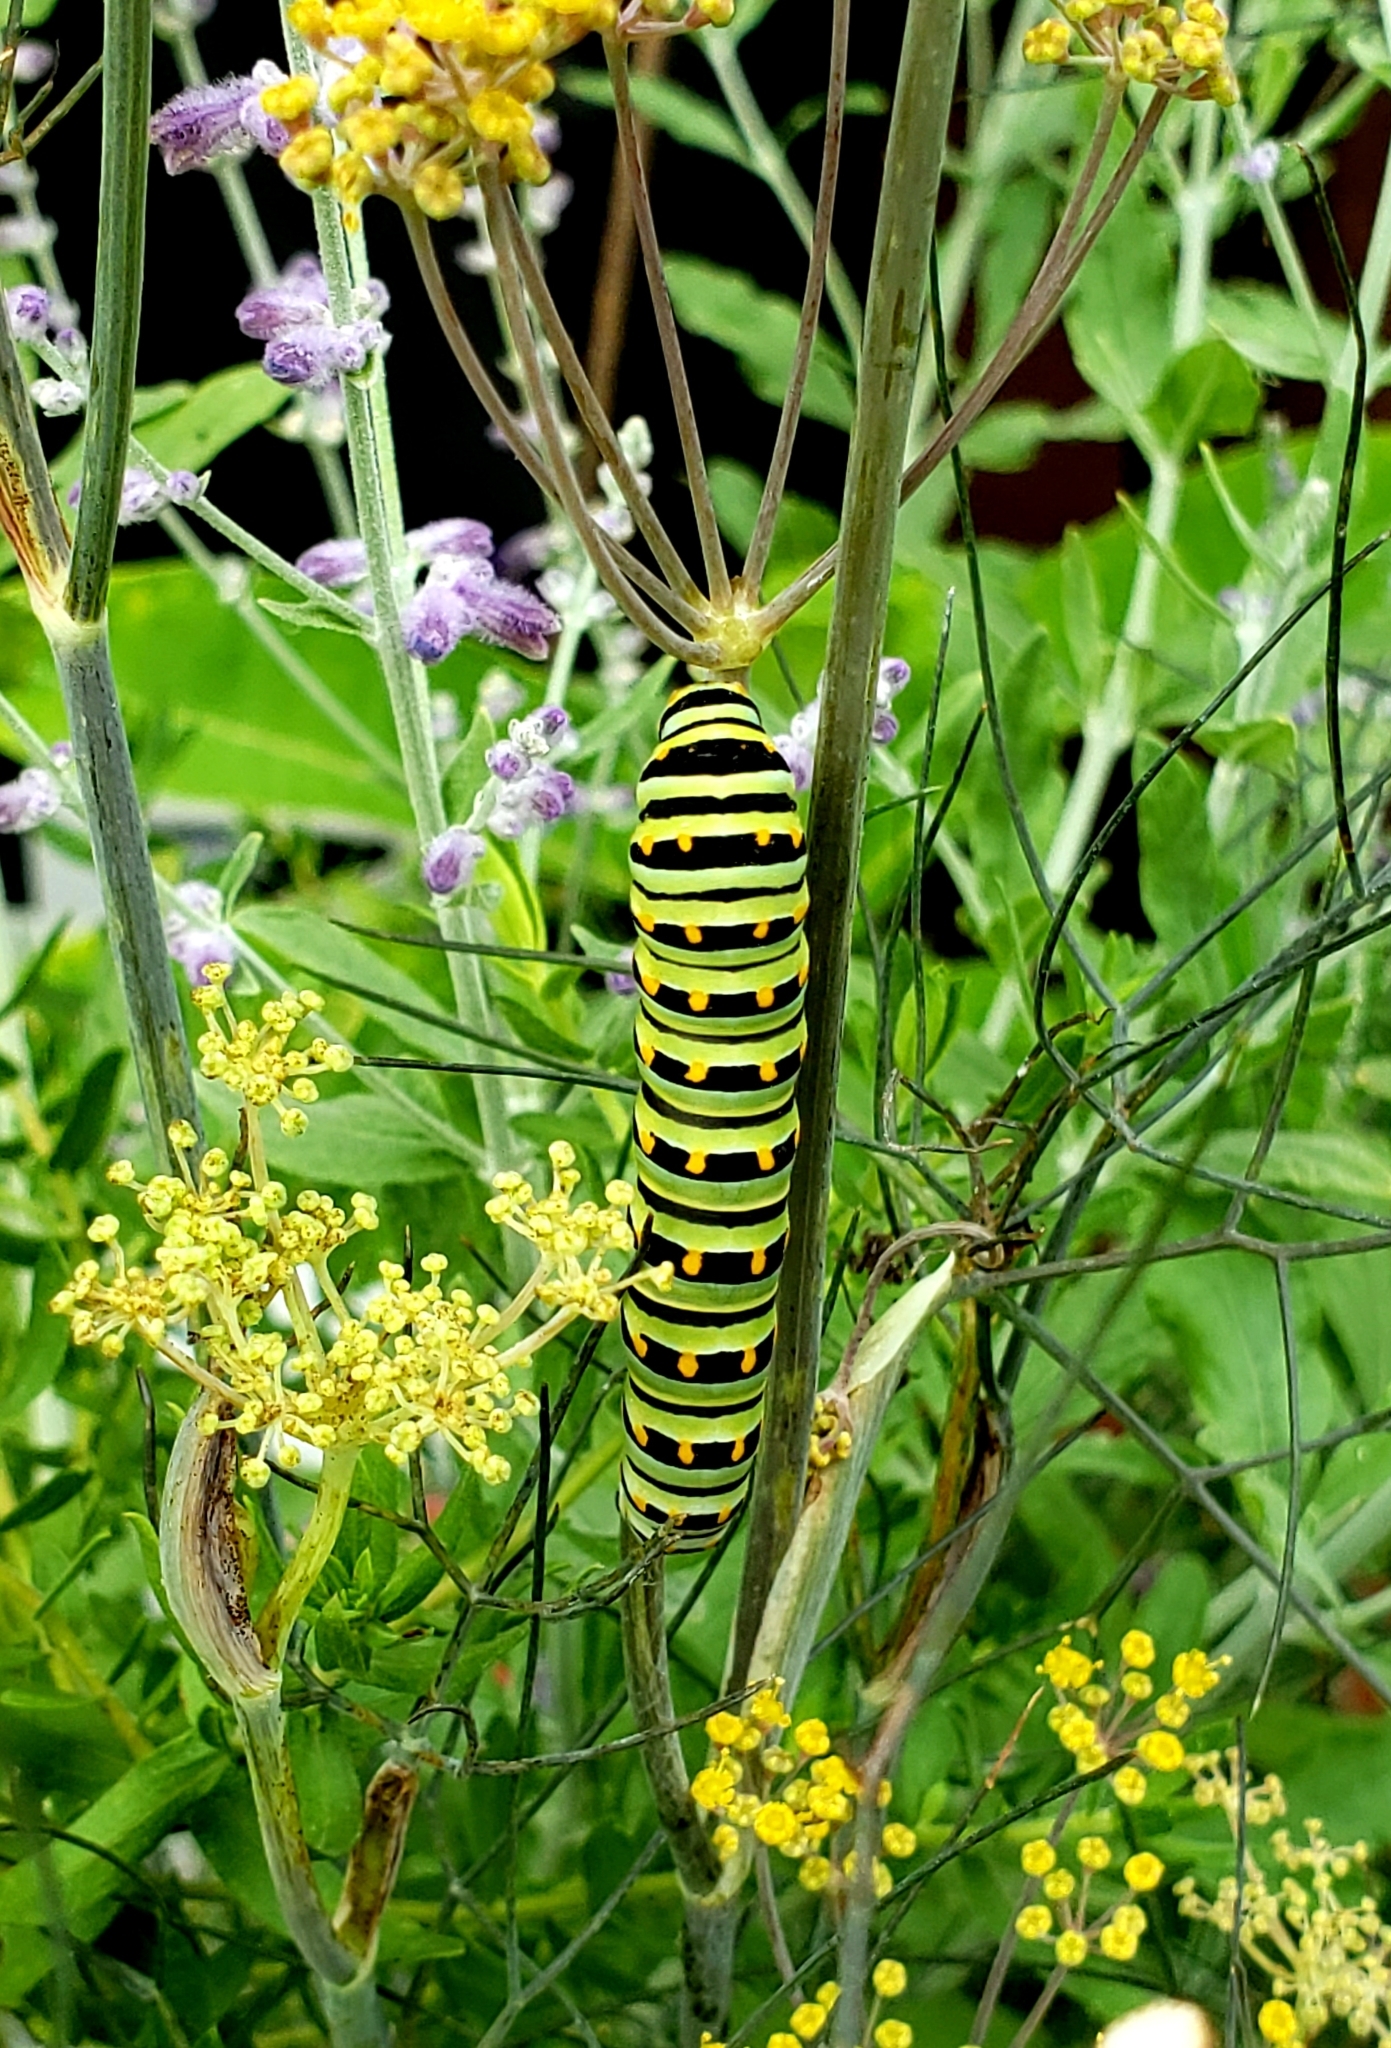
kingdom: Animalia
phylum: Arthropoda
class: Insecta
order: Lepidoptera
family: Papilionidae
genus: Papilio
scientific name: Papilio polyxenes
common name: Black swallowtail
